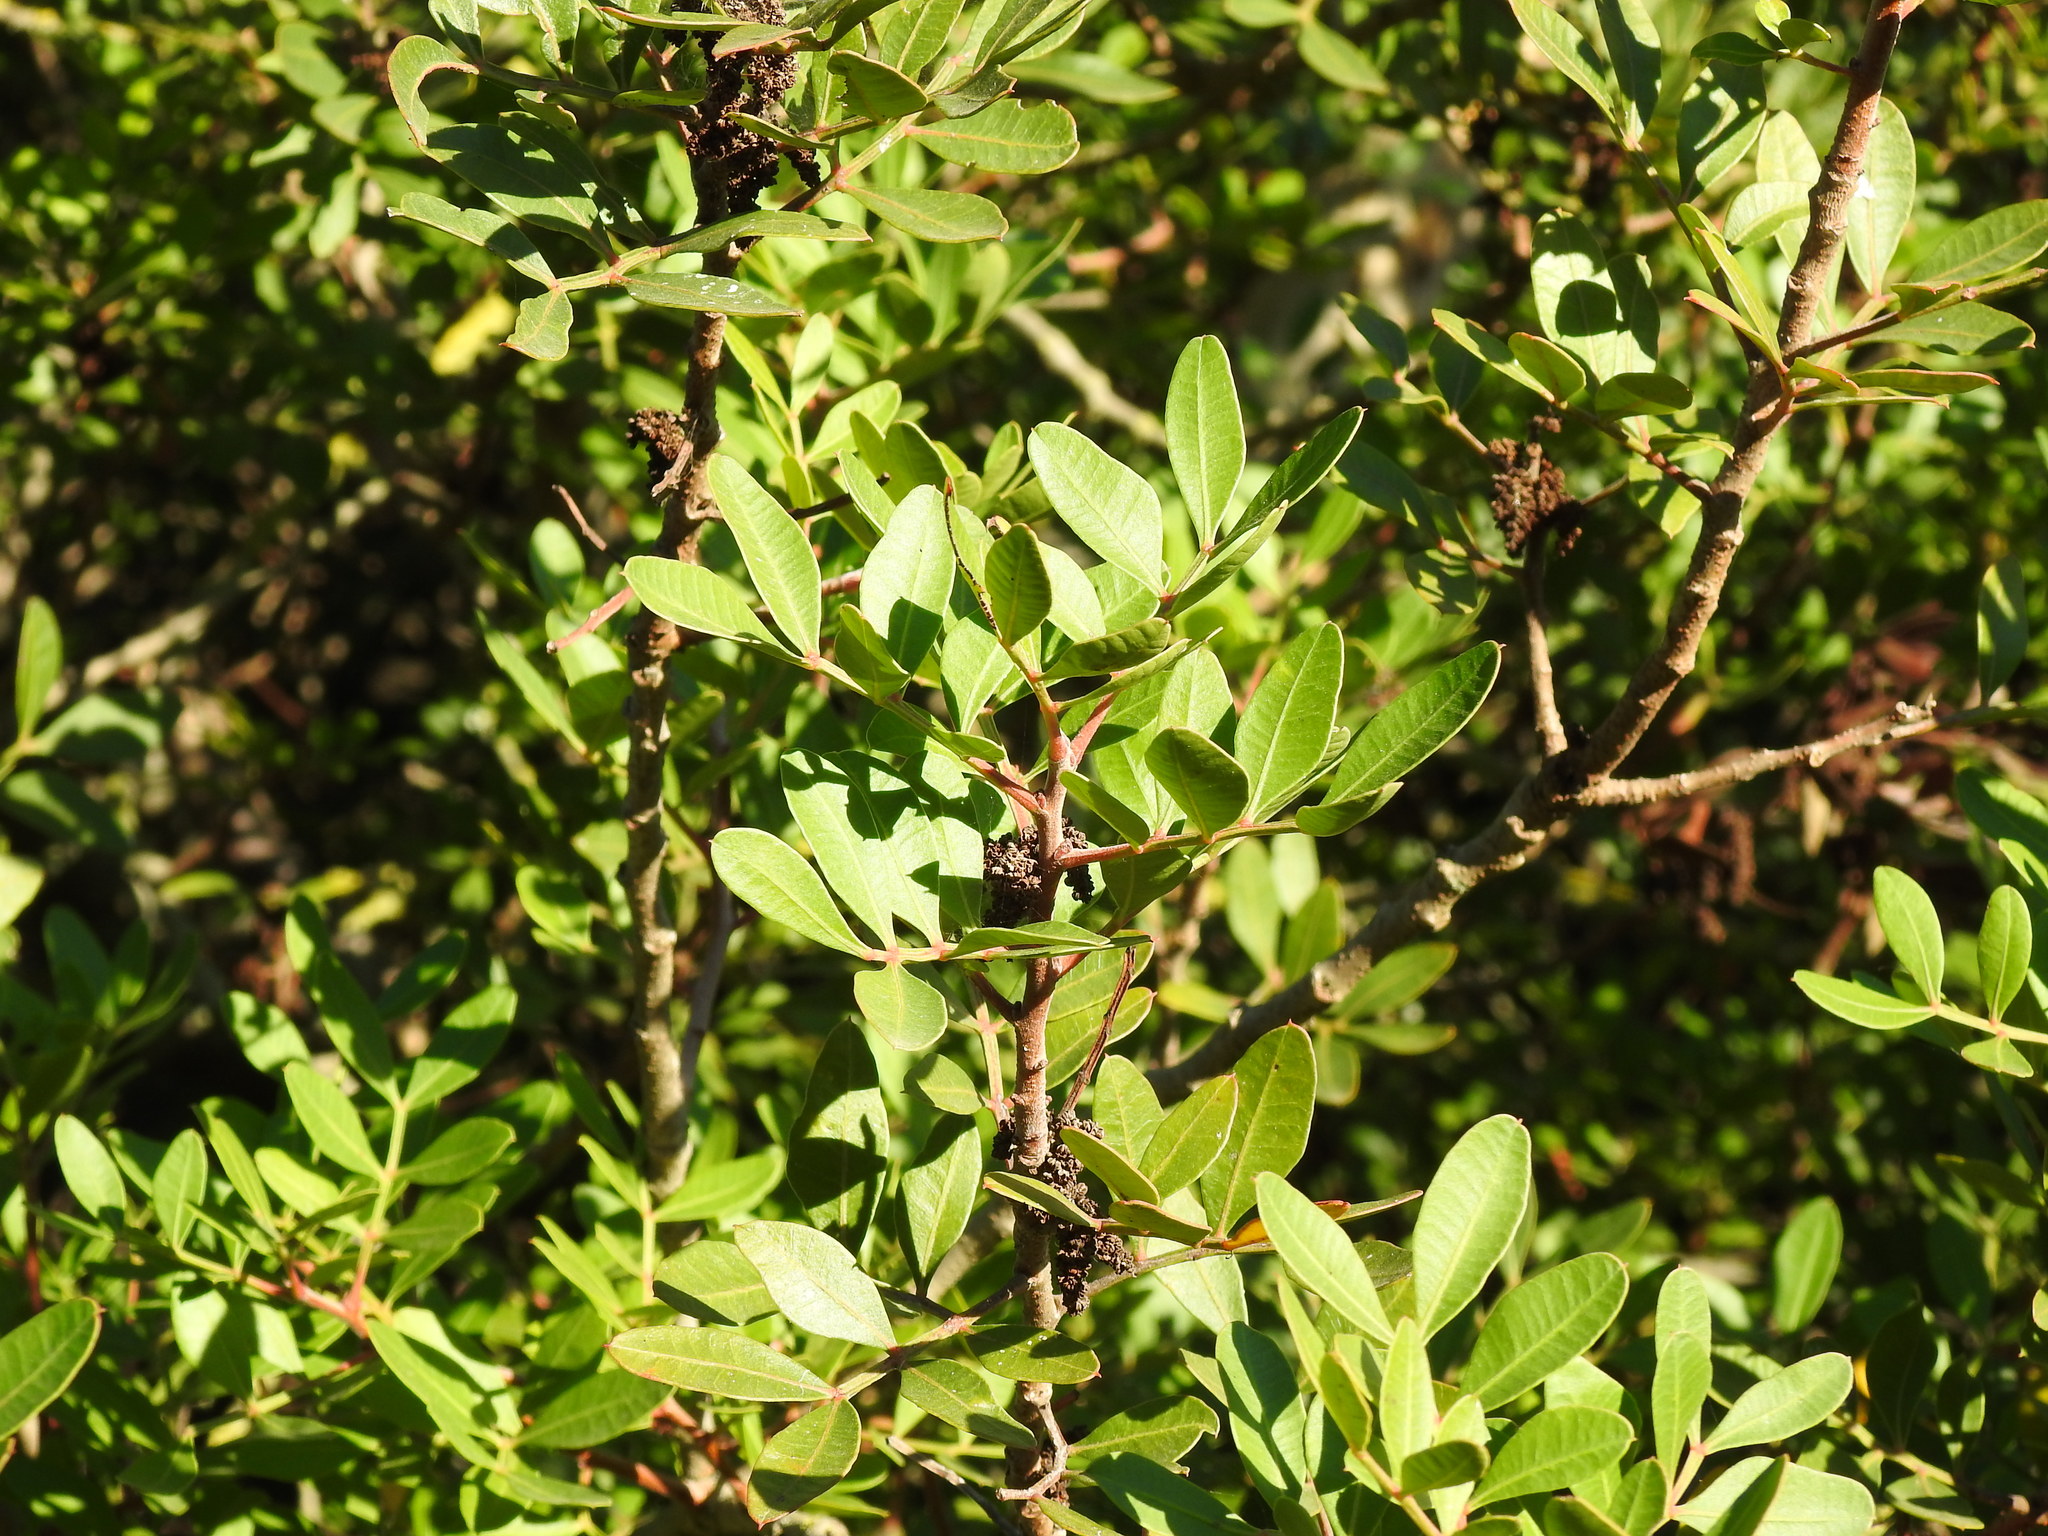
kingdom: Plantae
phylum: Tracheophyta
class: Magnoliopsida
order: Sapindales
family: Anacardiaceae
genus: Pistacia
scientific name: Pistacia lentiscus
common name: Lentisk
